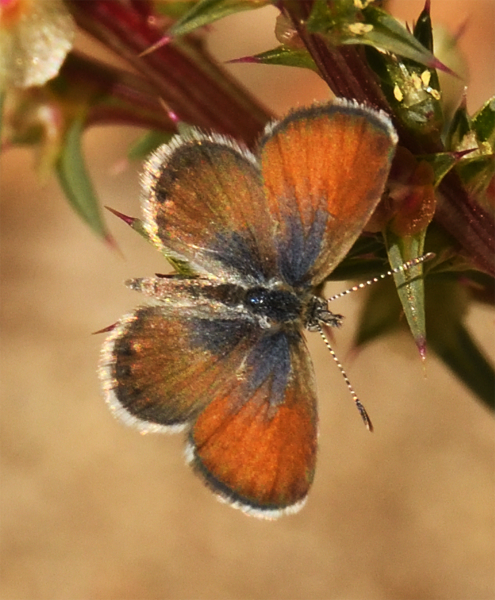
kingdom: Animalia
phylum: Arthropoda
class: Insecta
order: Lepidoptera
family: Lycaenidae
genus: Brephidium
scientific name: Brephidium exilis
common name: Pygmy blue
